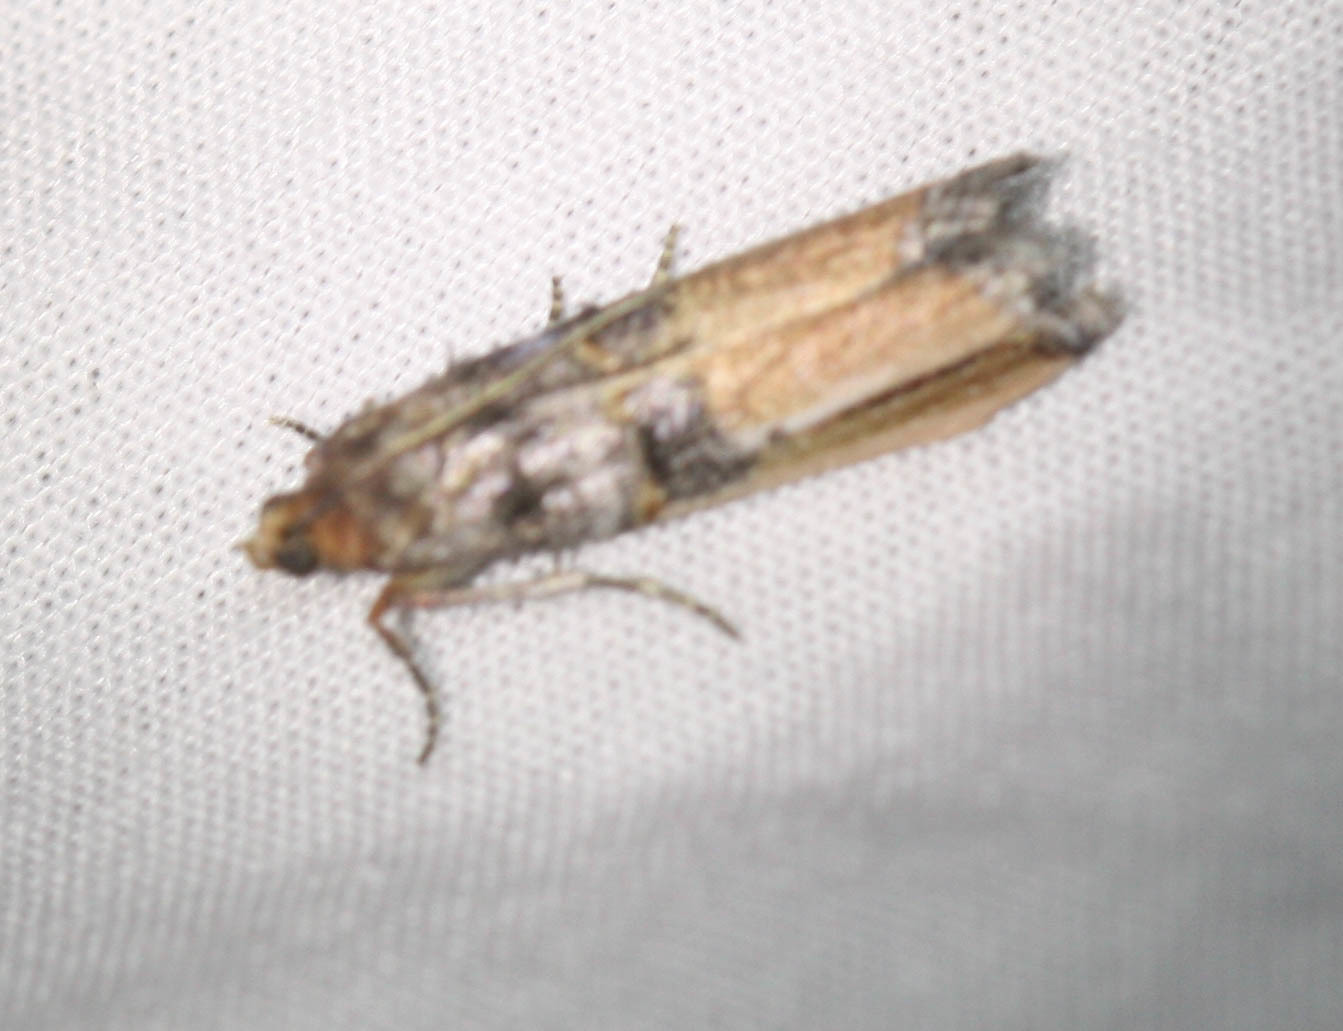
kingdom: Animalia
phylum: Arthropoda
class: Insecta
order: Lepidoptera
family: Pyralidae
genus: Dasypyga
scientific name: Dasypyga alternosquamella
